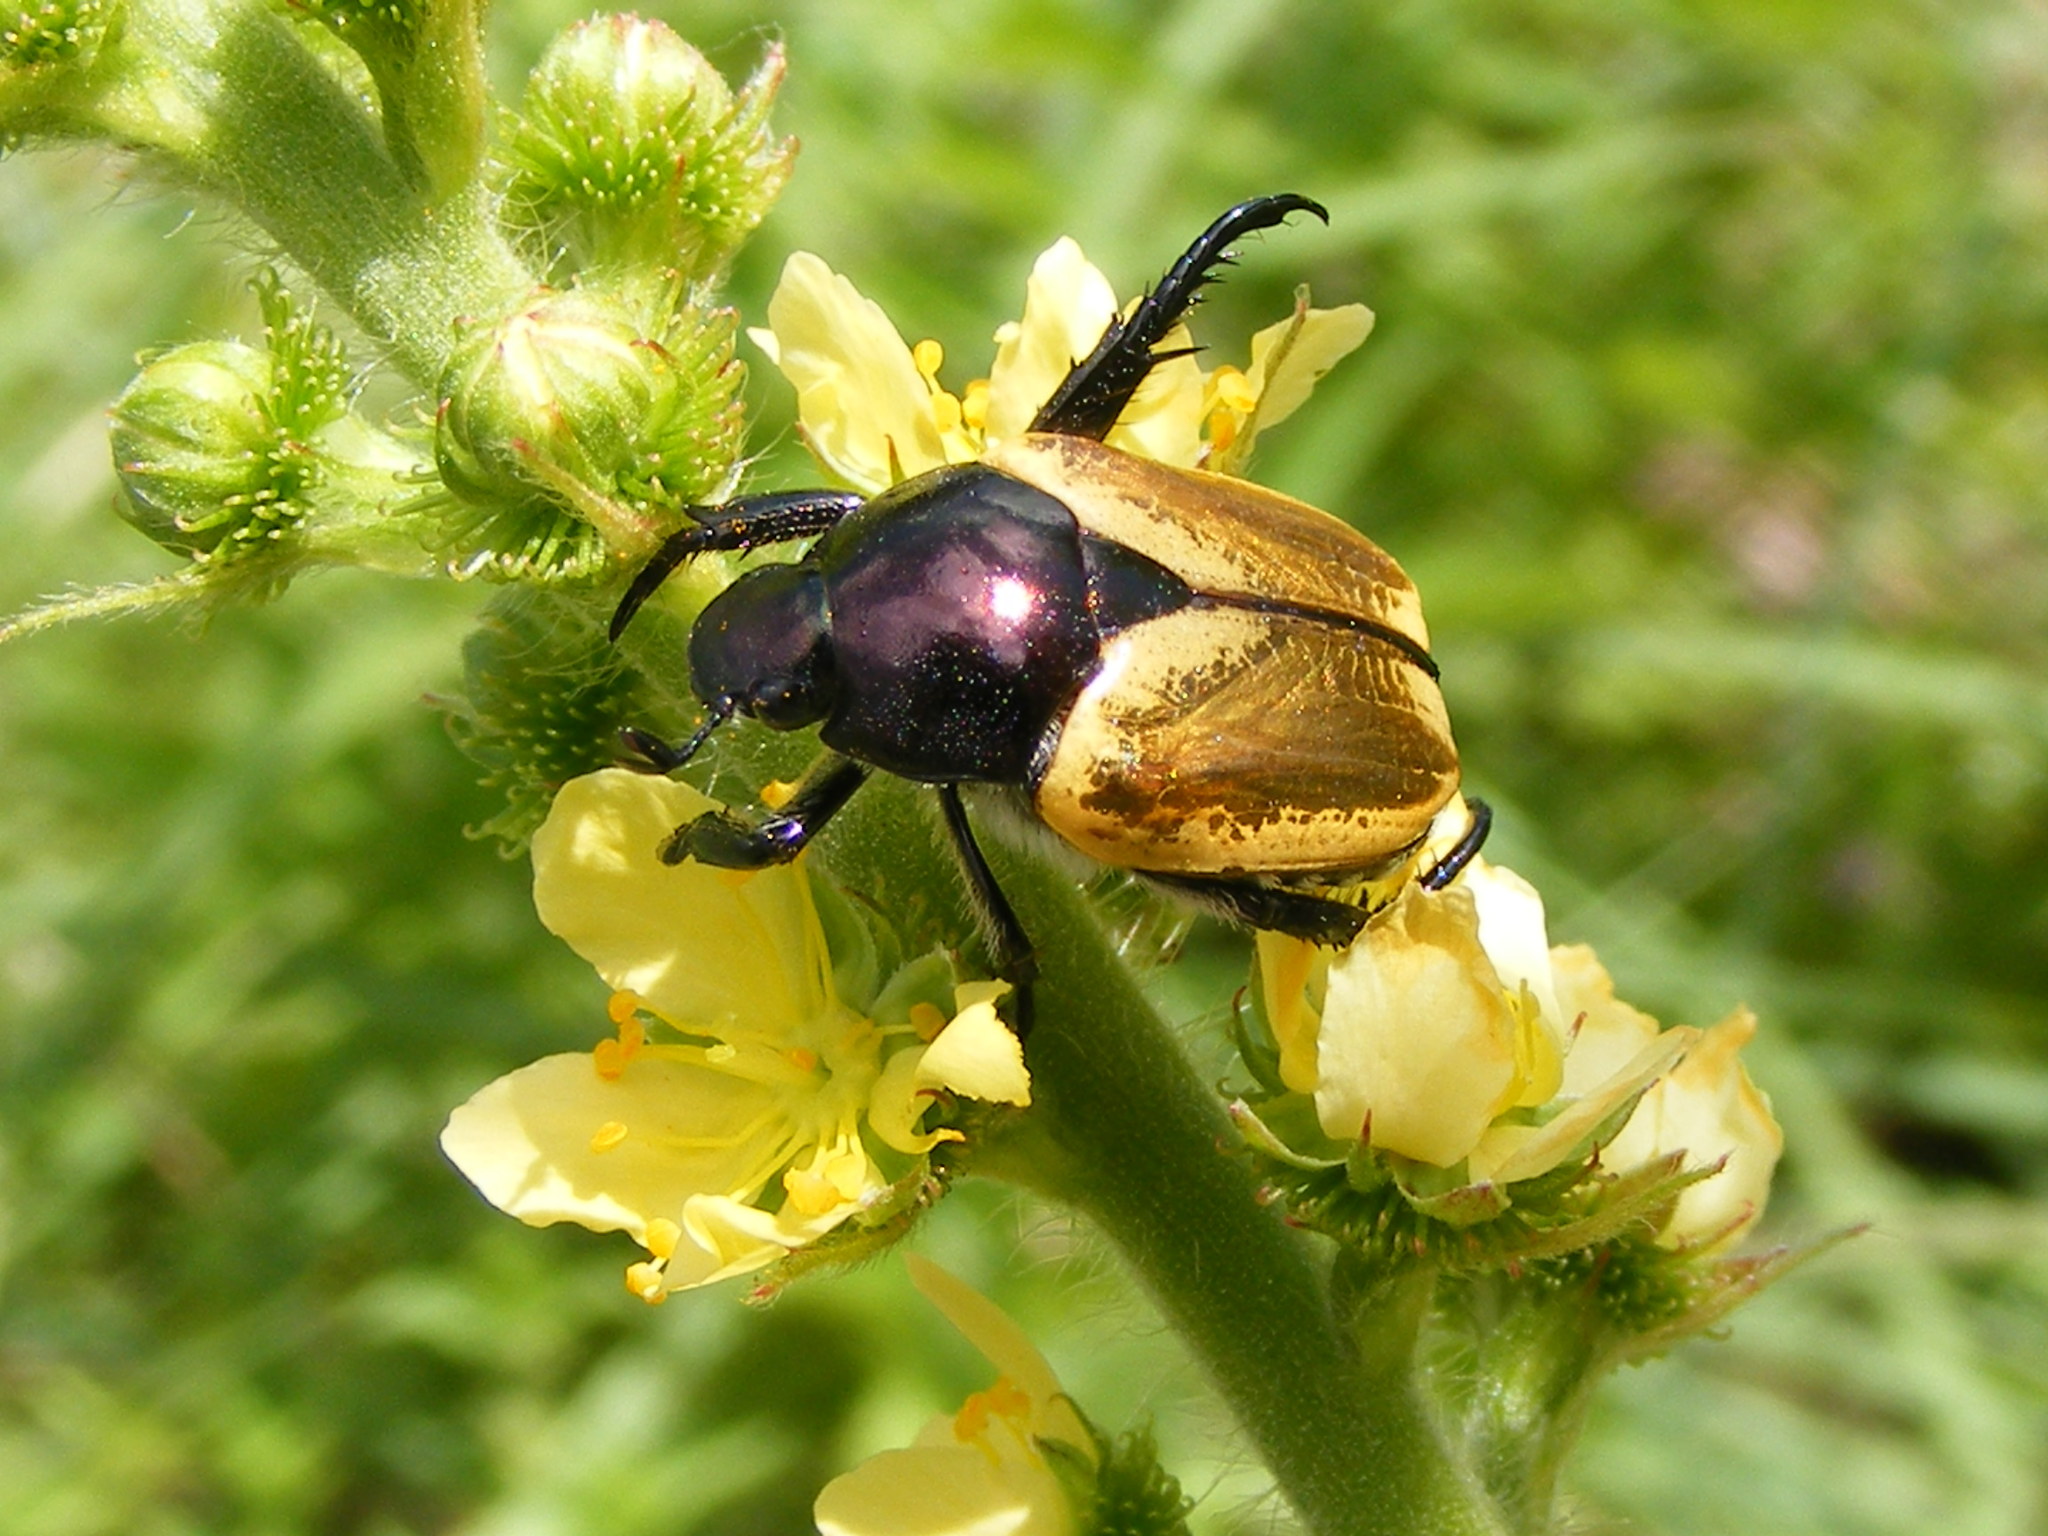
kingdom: Animalia
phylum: Arthropoda
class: Insecta
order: Coleoptera
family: Scarabaeidae
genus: Popillia
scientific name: Popillia bipunctata
